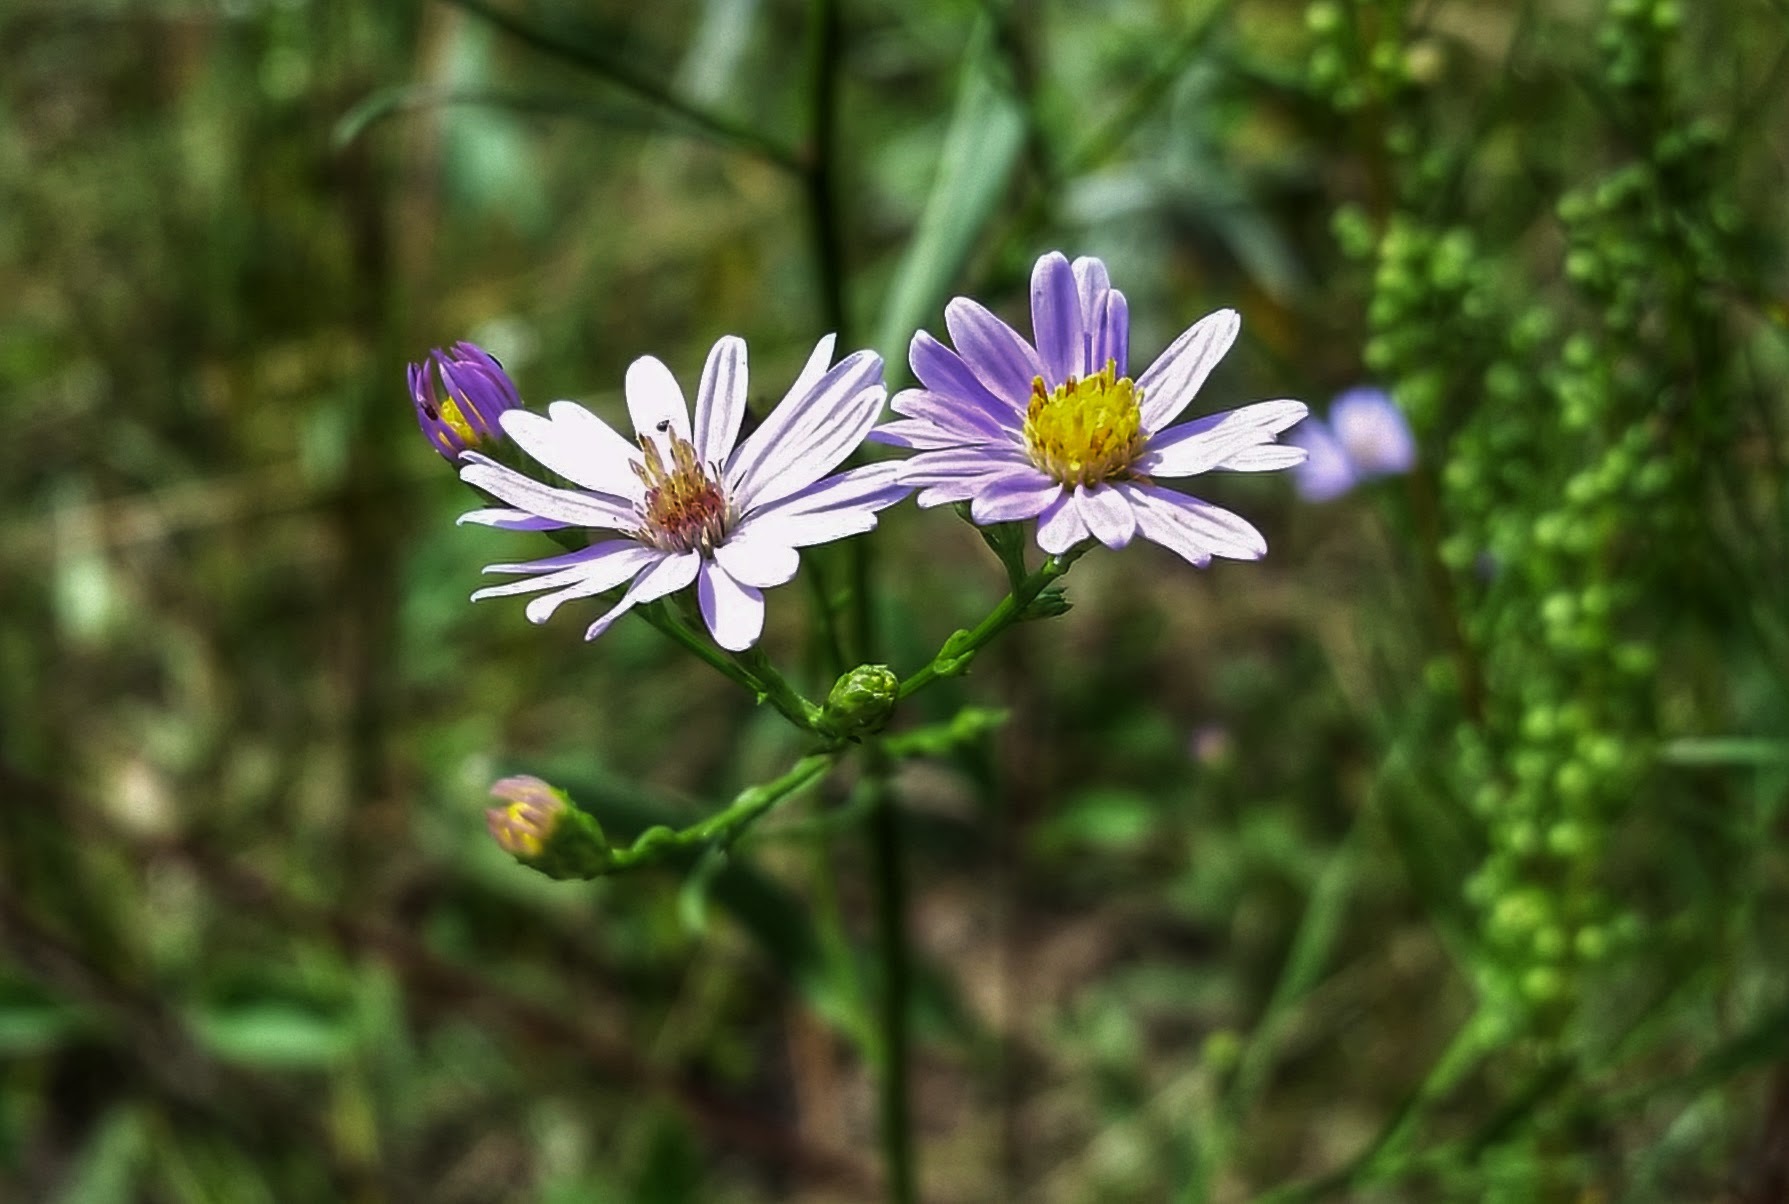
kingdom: Plantae
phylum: Tracheophyta
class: Magnoliopsida
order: Asterales
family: Asteraceae
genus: Symphyotrichum
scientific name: Symphyotrichum oolentangiense
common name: Azure aster
